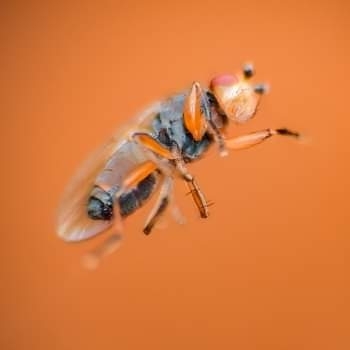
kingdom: Animalia
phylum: Arthropoda
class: Insecta
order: Diptera
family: Sphaeroceridae
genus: Spelobia
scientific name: Spelobia ochripes
